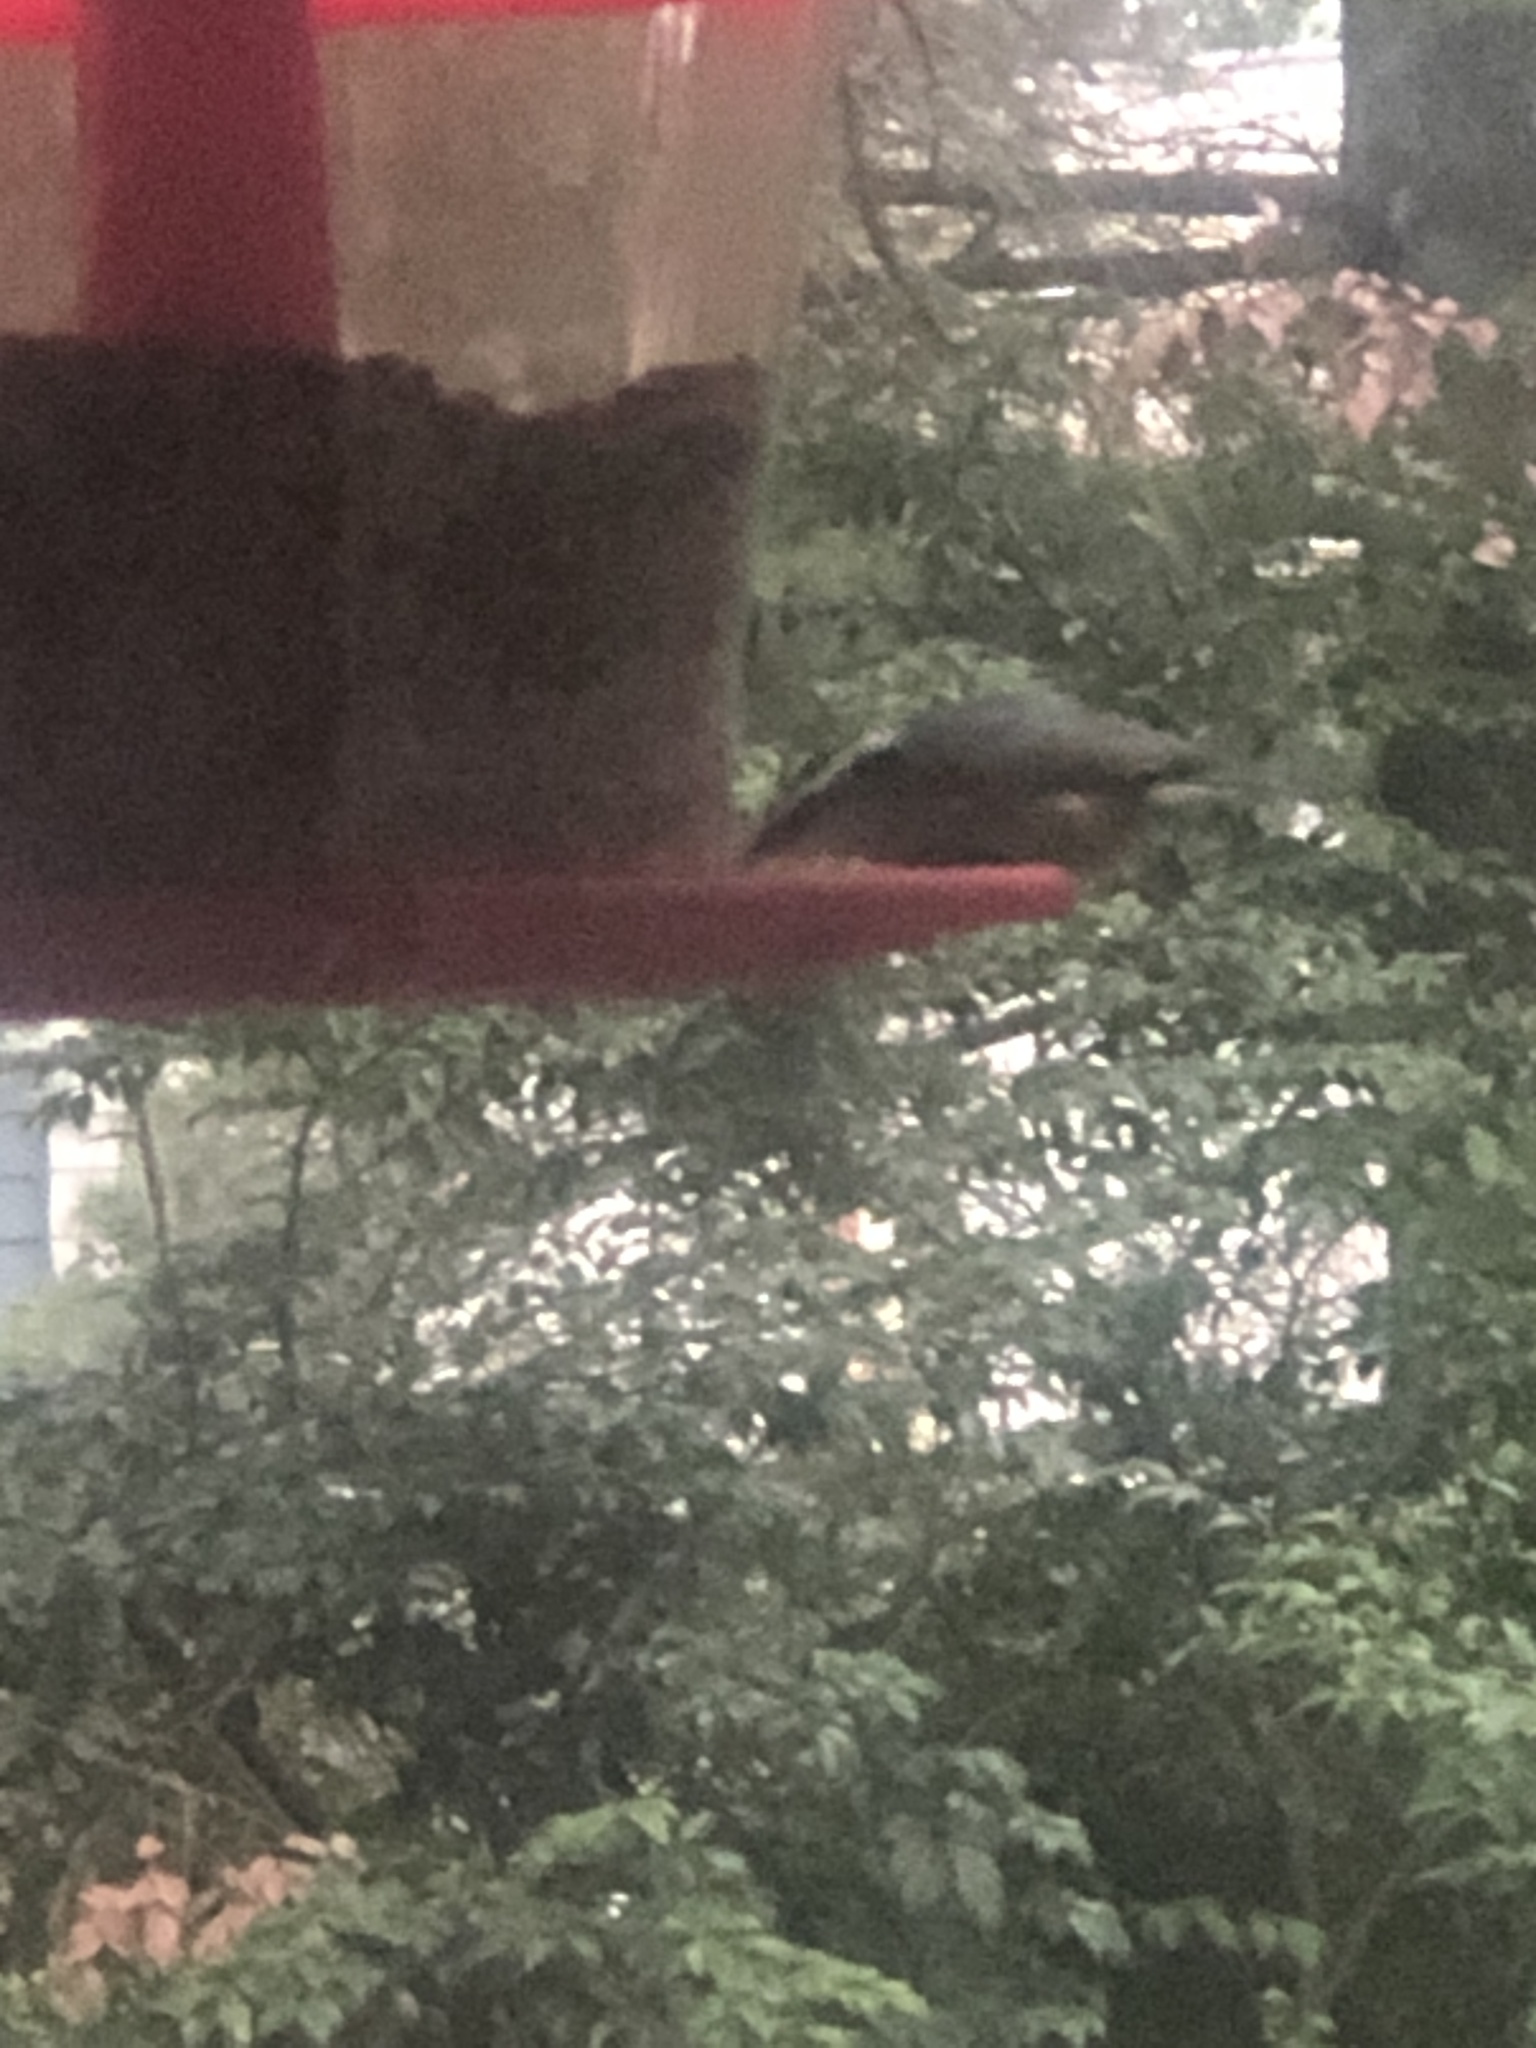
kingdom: Animalia
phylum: Chordata
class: Aves
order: Passeriformes
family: Sittidae
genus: Sitta
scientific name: Sitta canadensis
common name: Red-breasted nuthatch
